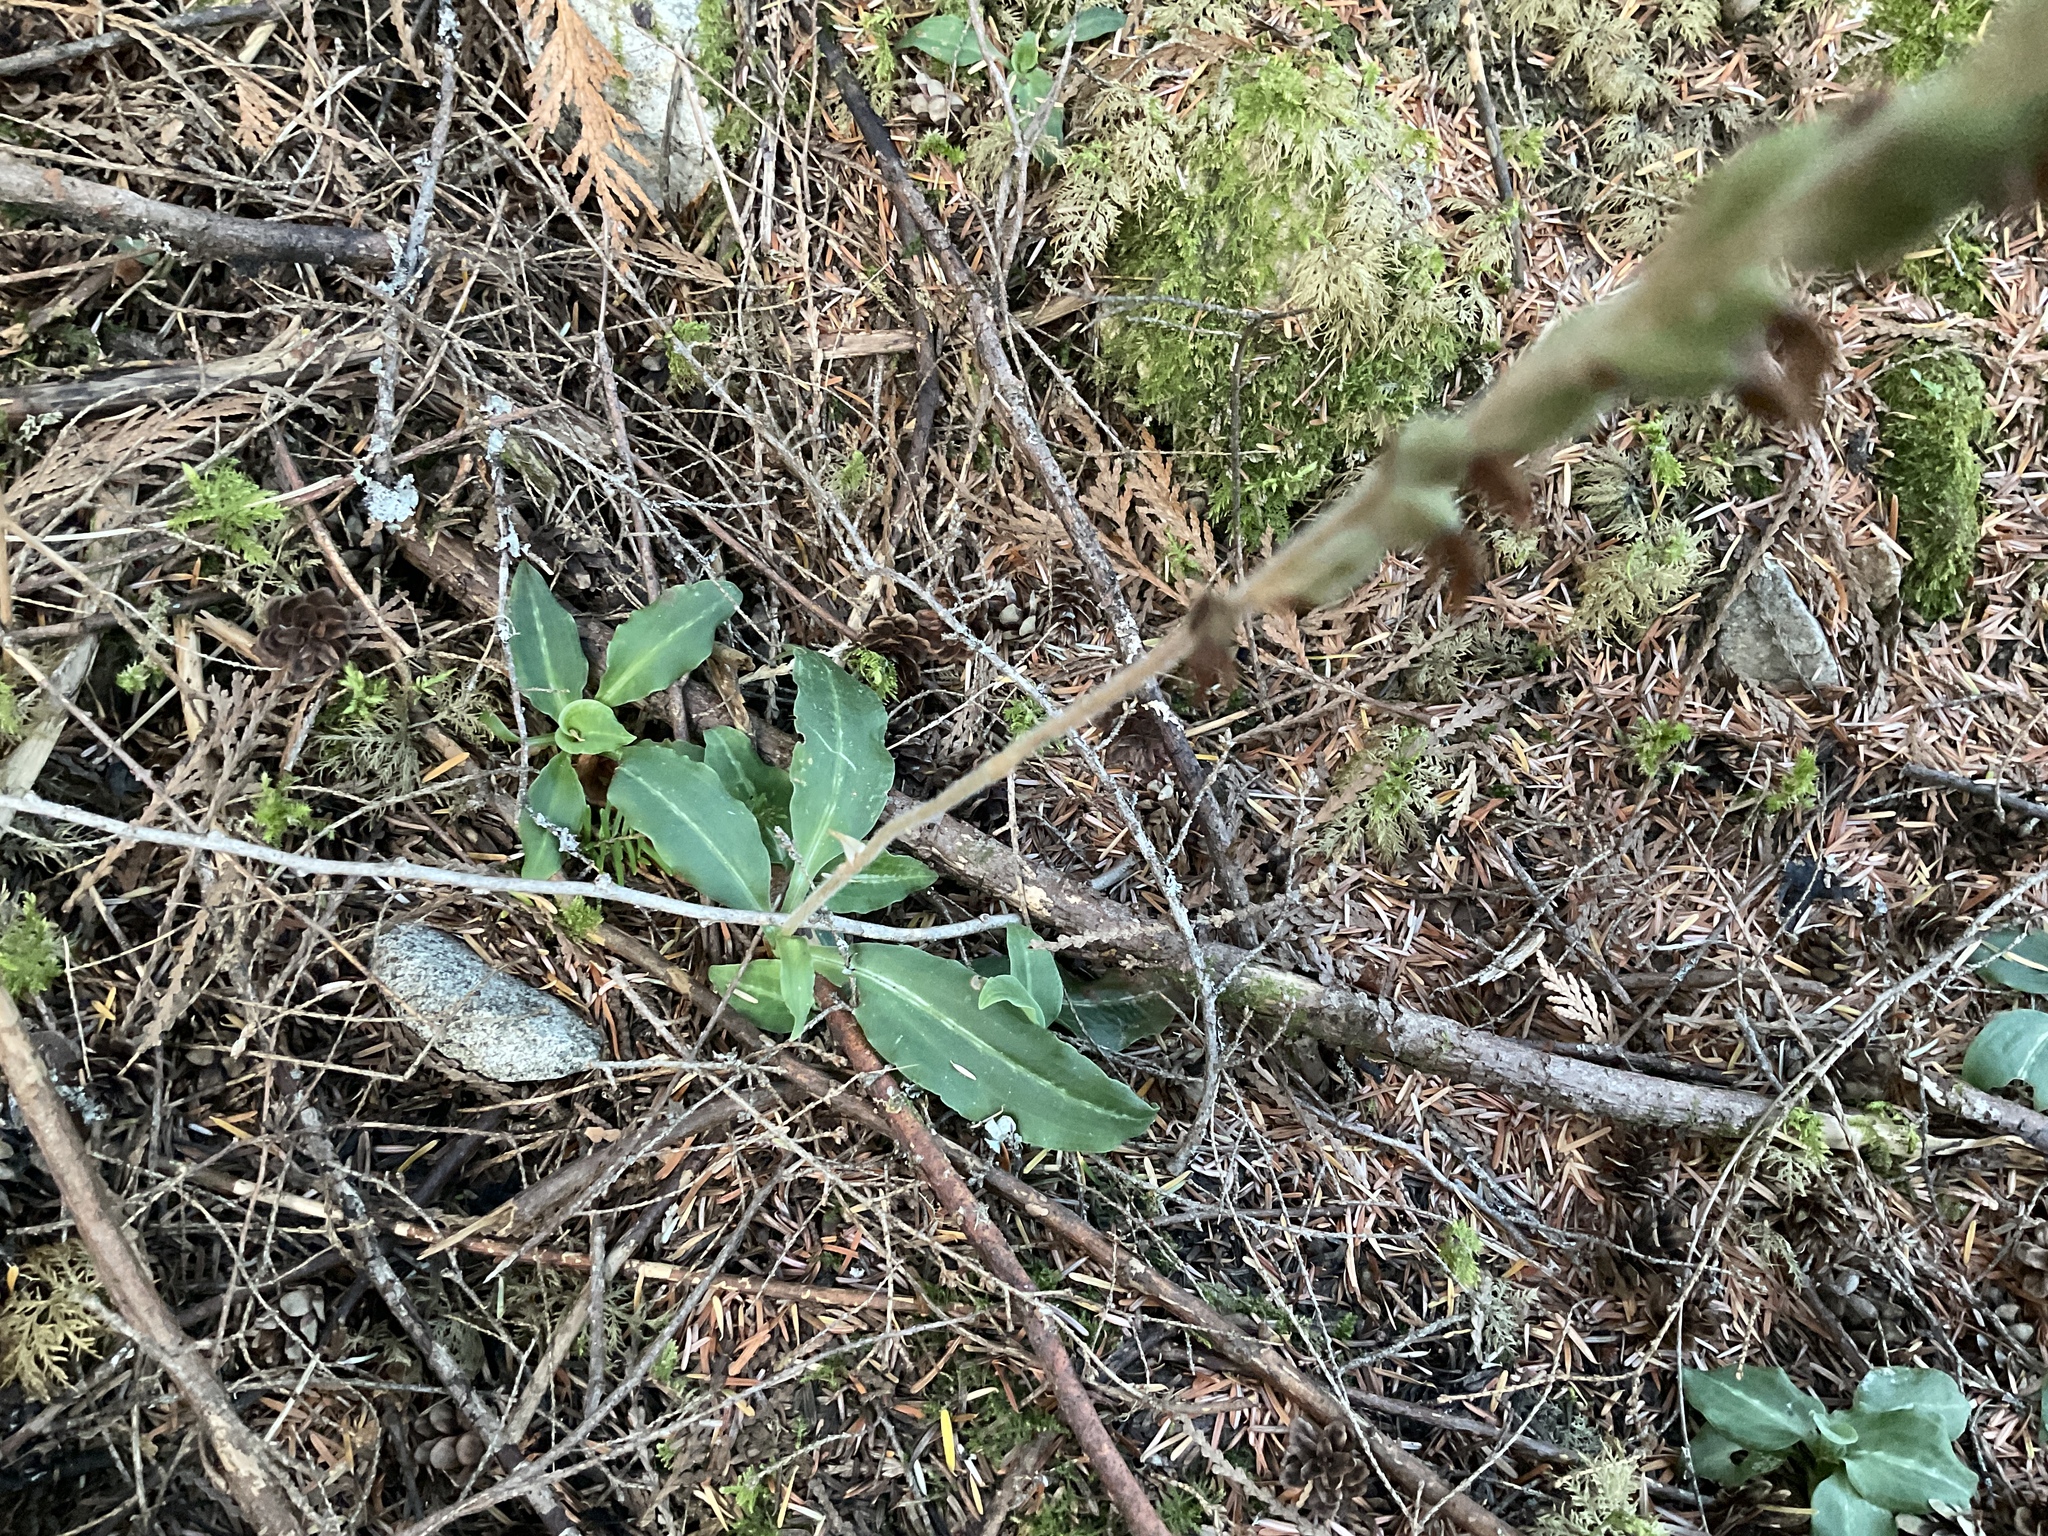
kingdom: Plantae
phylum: Tracheophyta
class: Liliopsida
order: Asparagales
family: Orchidaceae
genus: Goodyera
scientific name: Goodyera oblongifolia
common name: Giant rattlesnake-plantain
